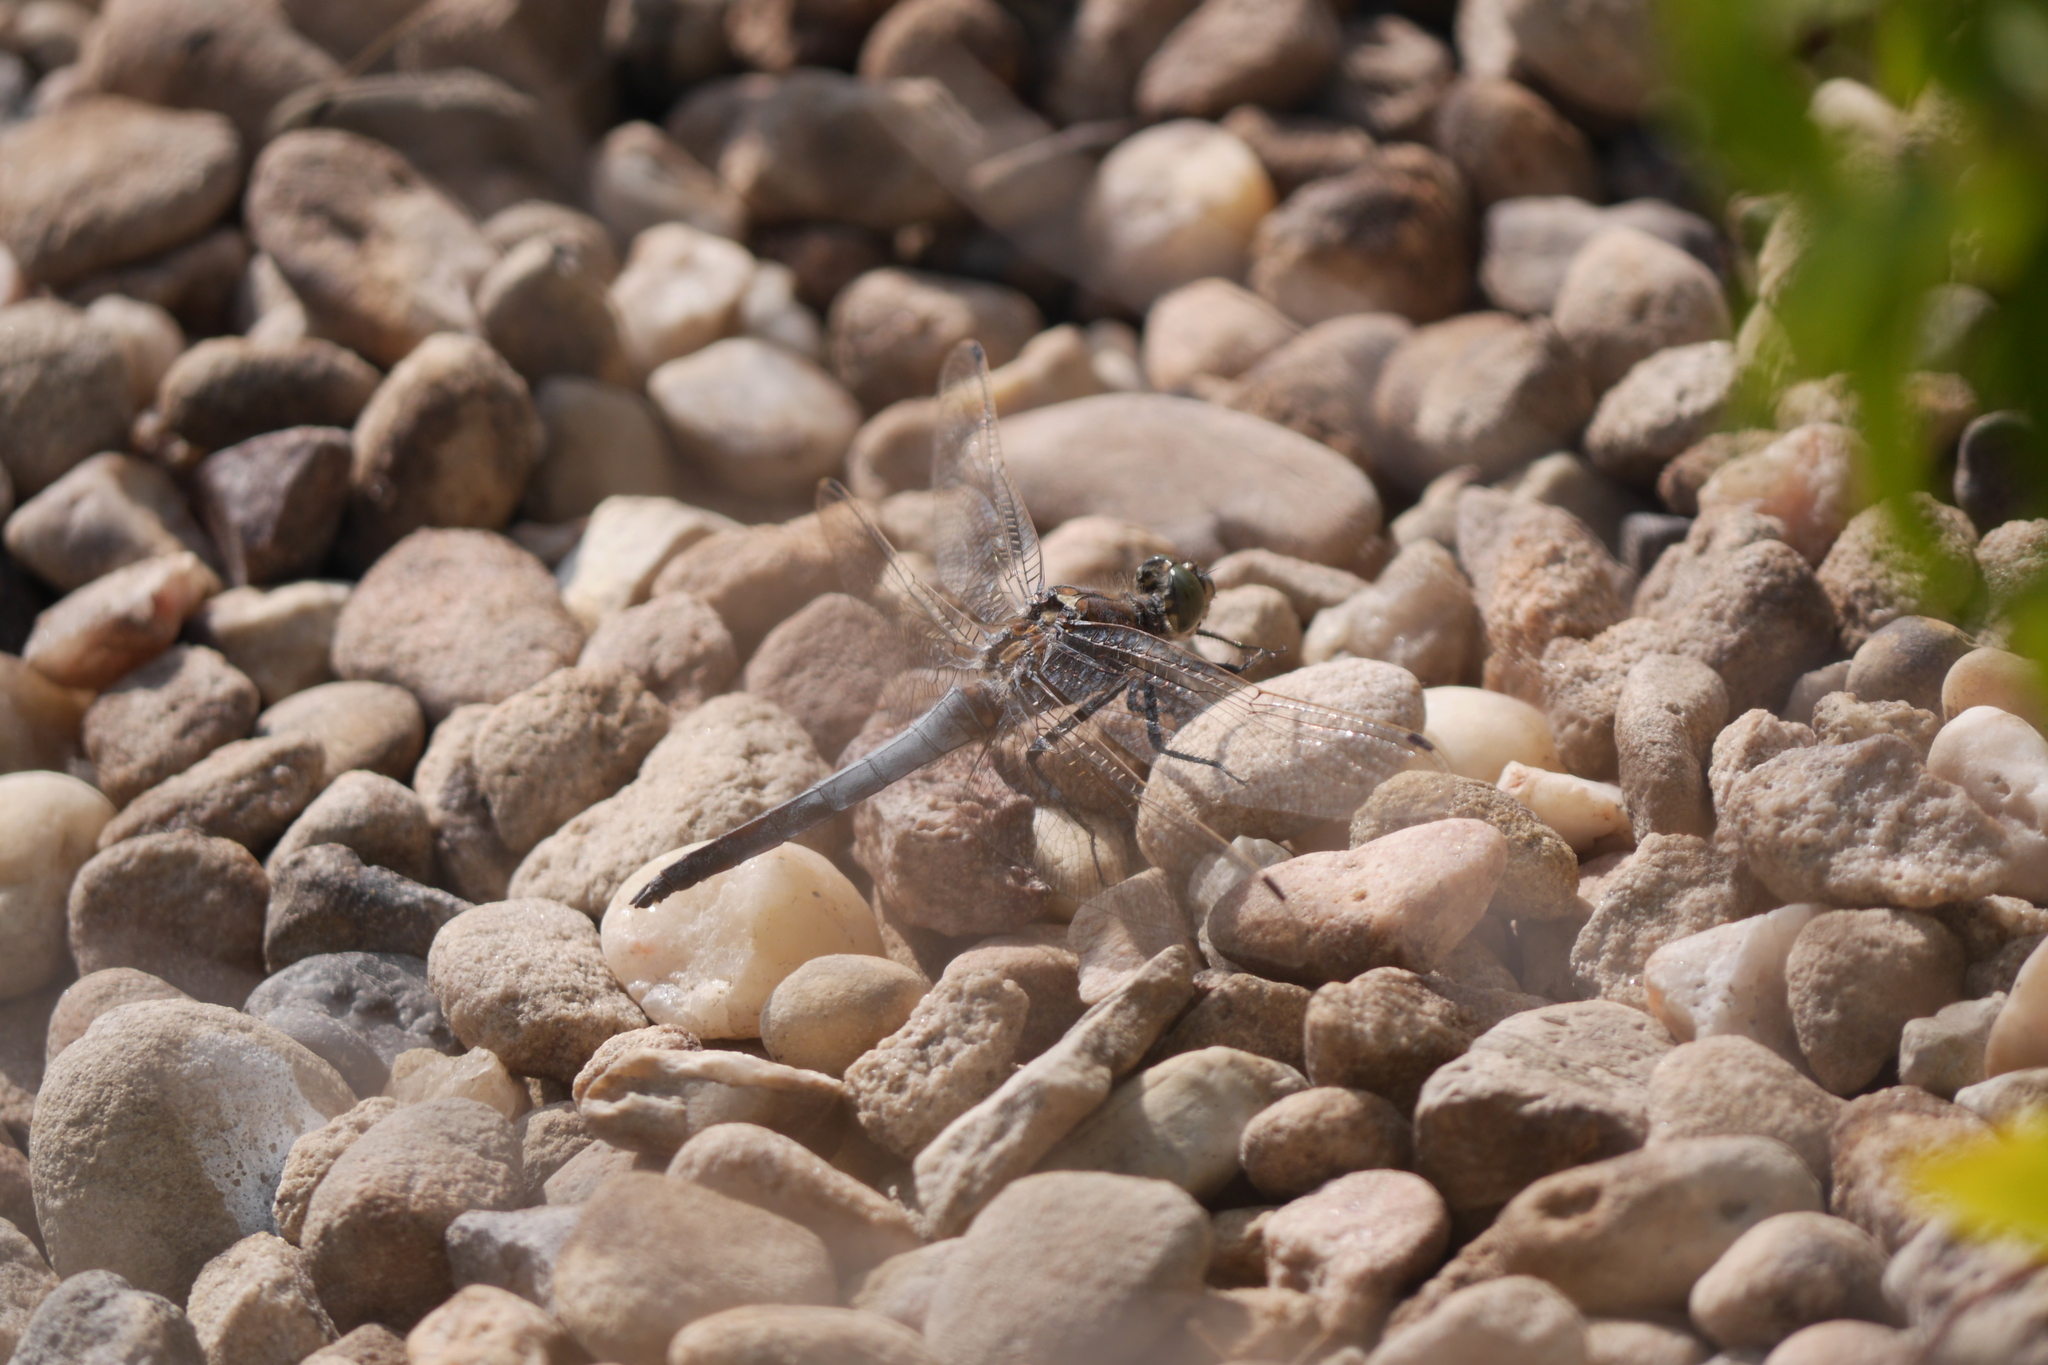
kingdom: Animalia
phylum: Arthropoda
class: Insecta
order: Odonata
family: Libellulidae
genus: Orthetrum
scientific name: Orthetrum cancellatum
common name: Black-tailed skimmer
